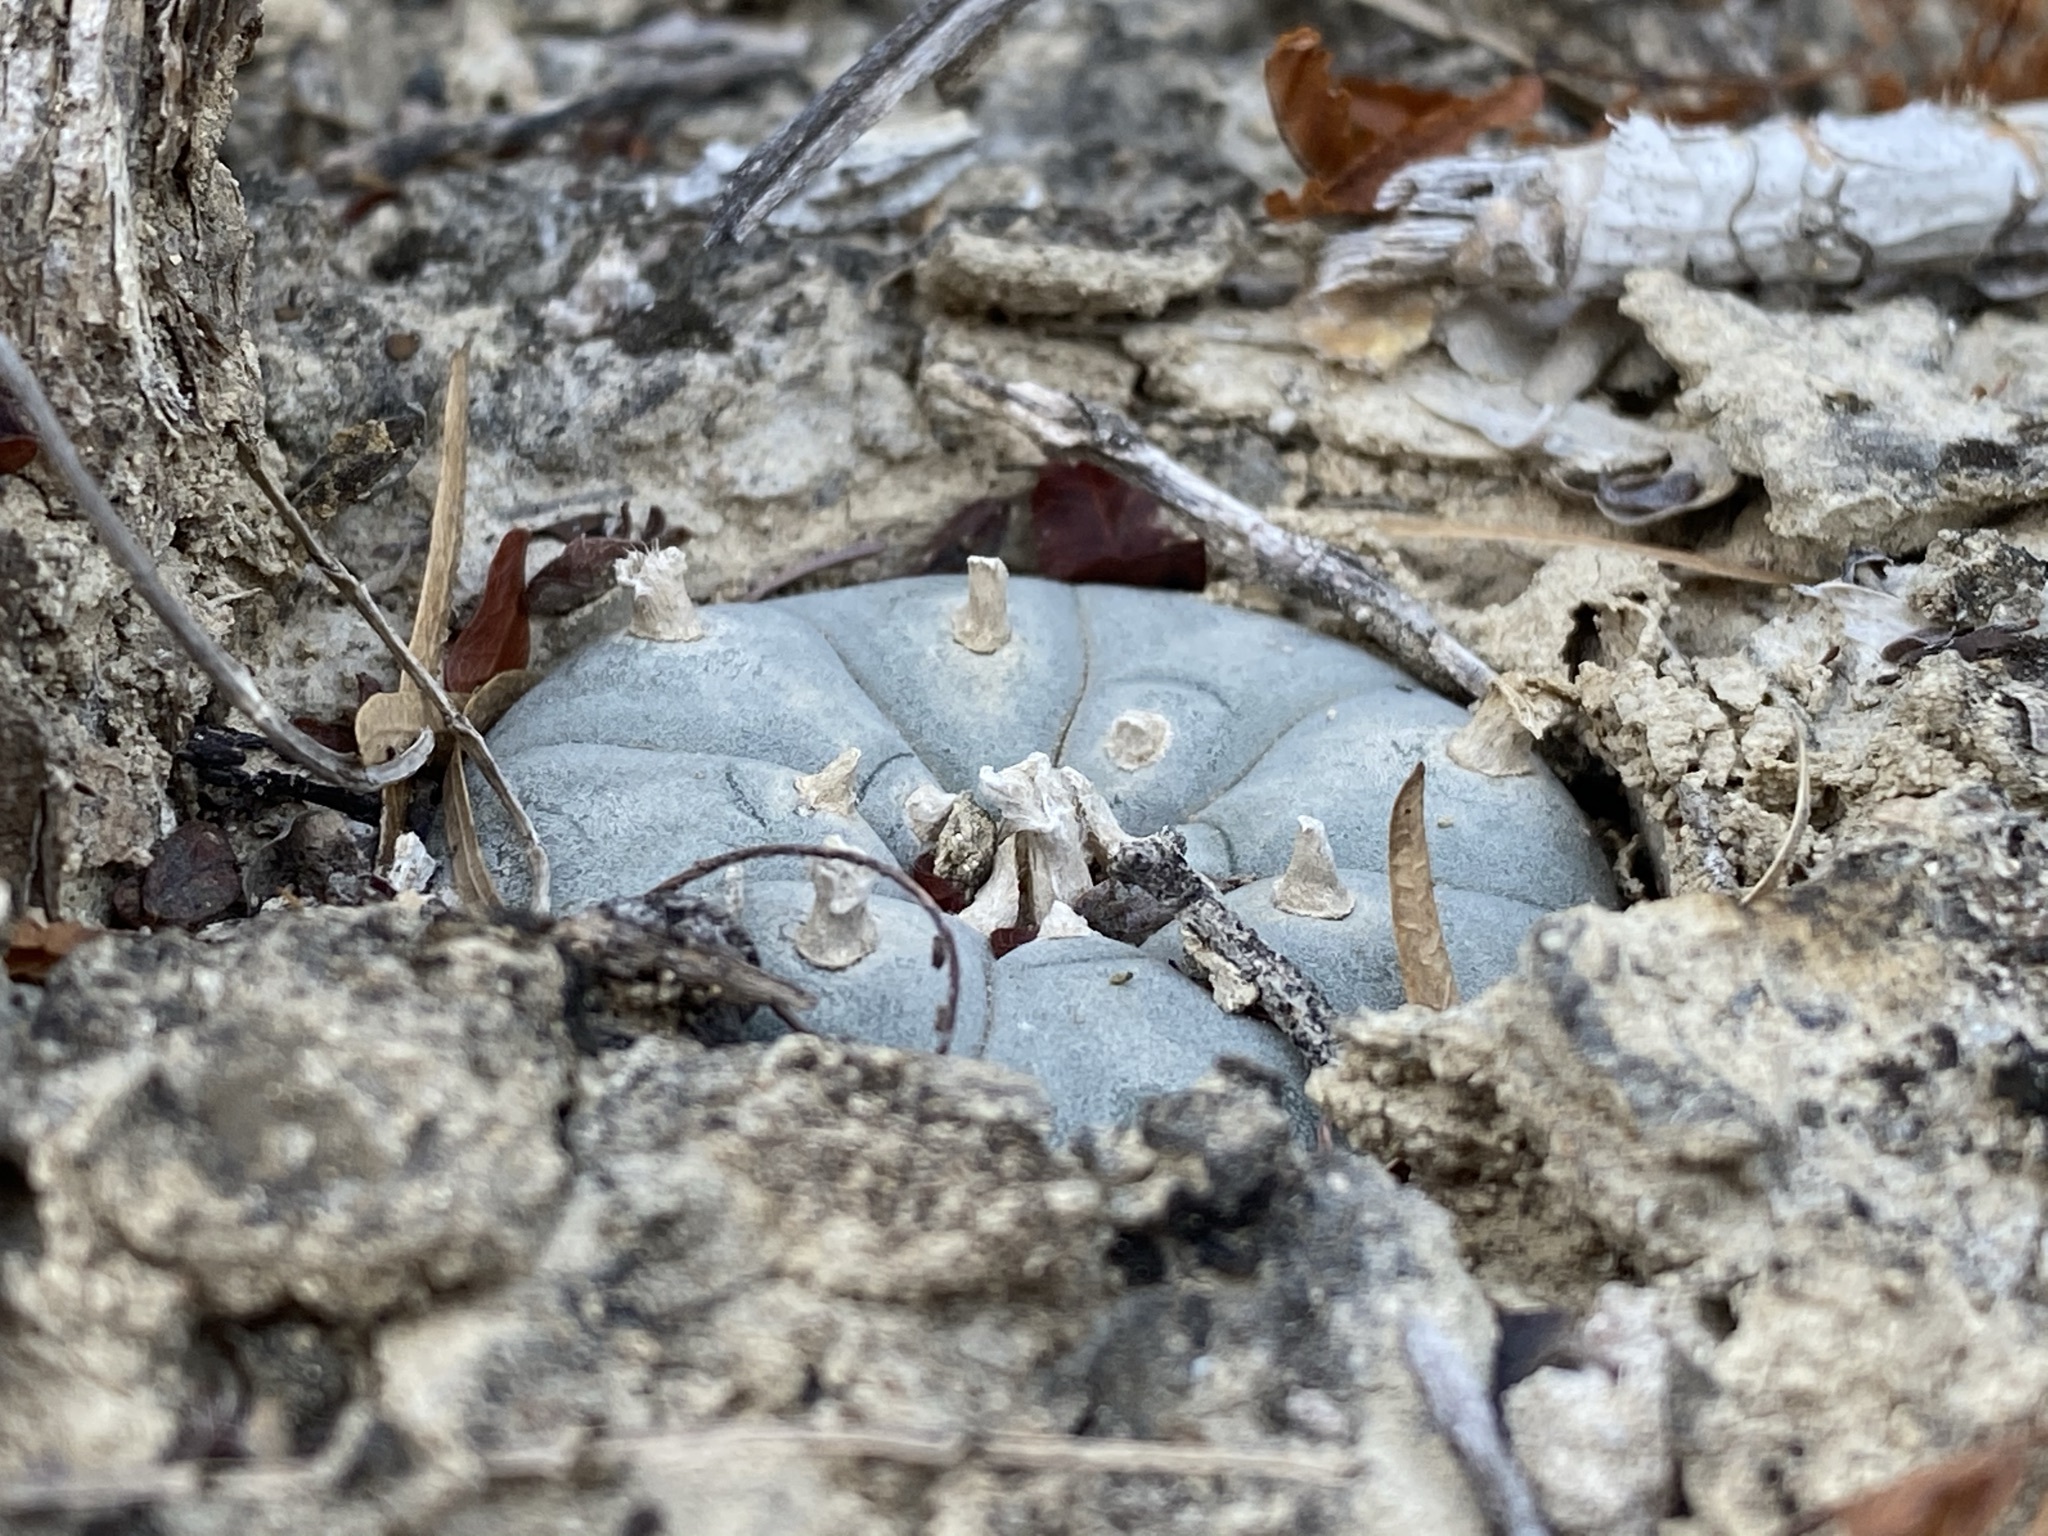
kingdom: Plantae
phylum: Tracheophyta
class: Magnoliopsida
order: Caryophyllales
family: Cactaceae
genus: Lophophora
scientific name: Lophophora williamsii
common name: Indian-dope
